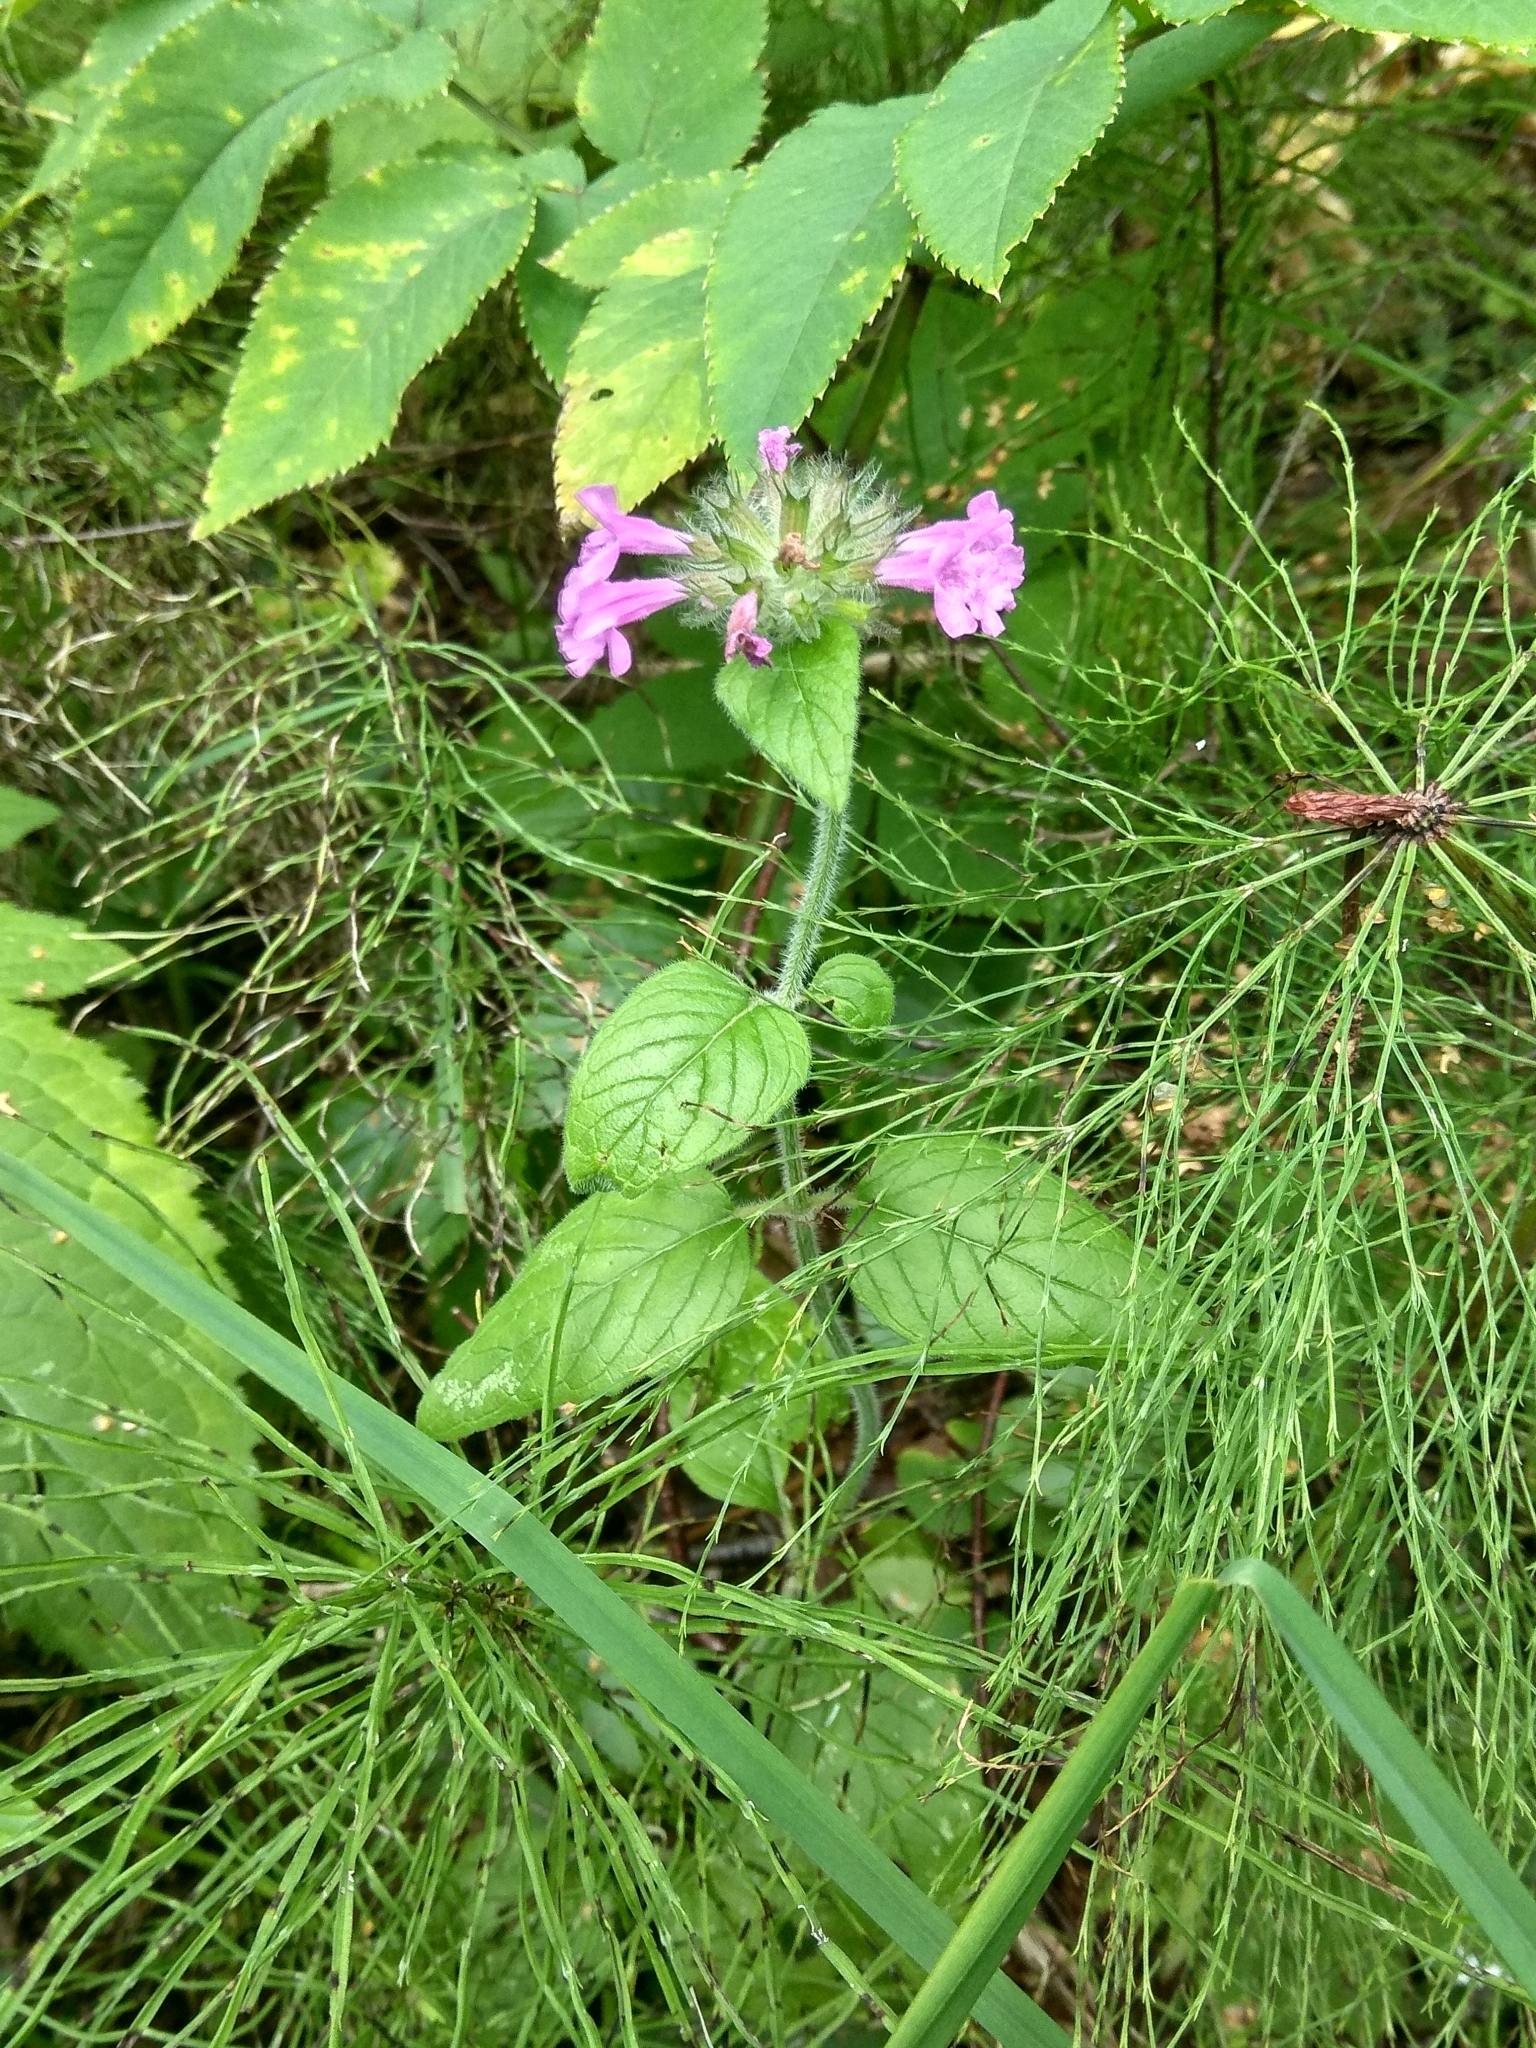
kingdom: Plantae
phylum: Tracheophyta
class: Magnoliopsida
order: Lamiales
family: Lamiaceae
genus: Clinopodium
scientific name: Clinopodium vulgare
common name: Wild basil
